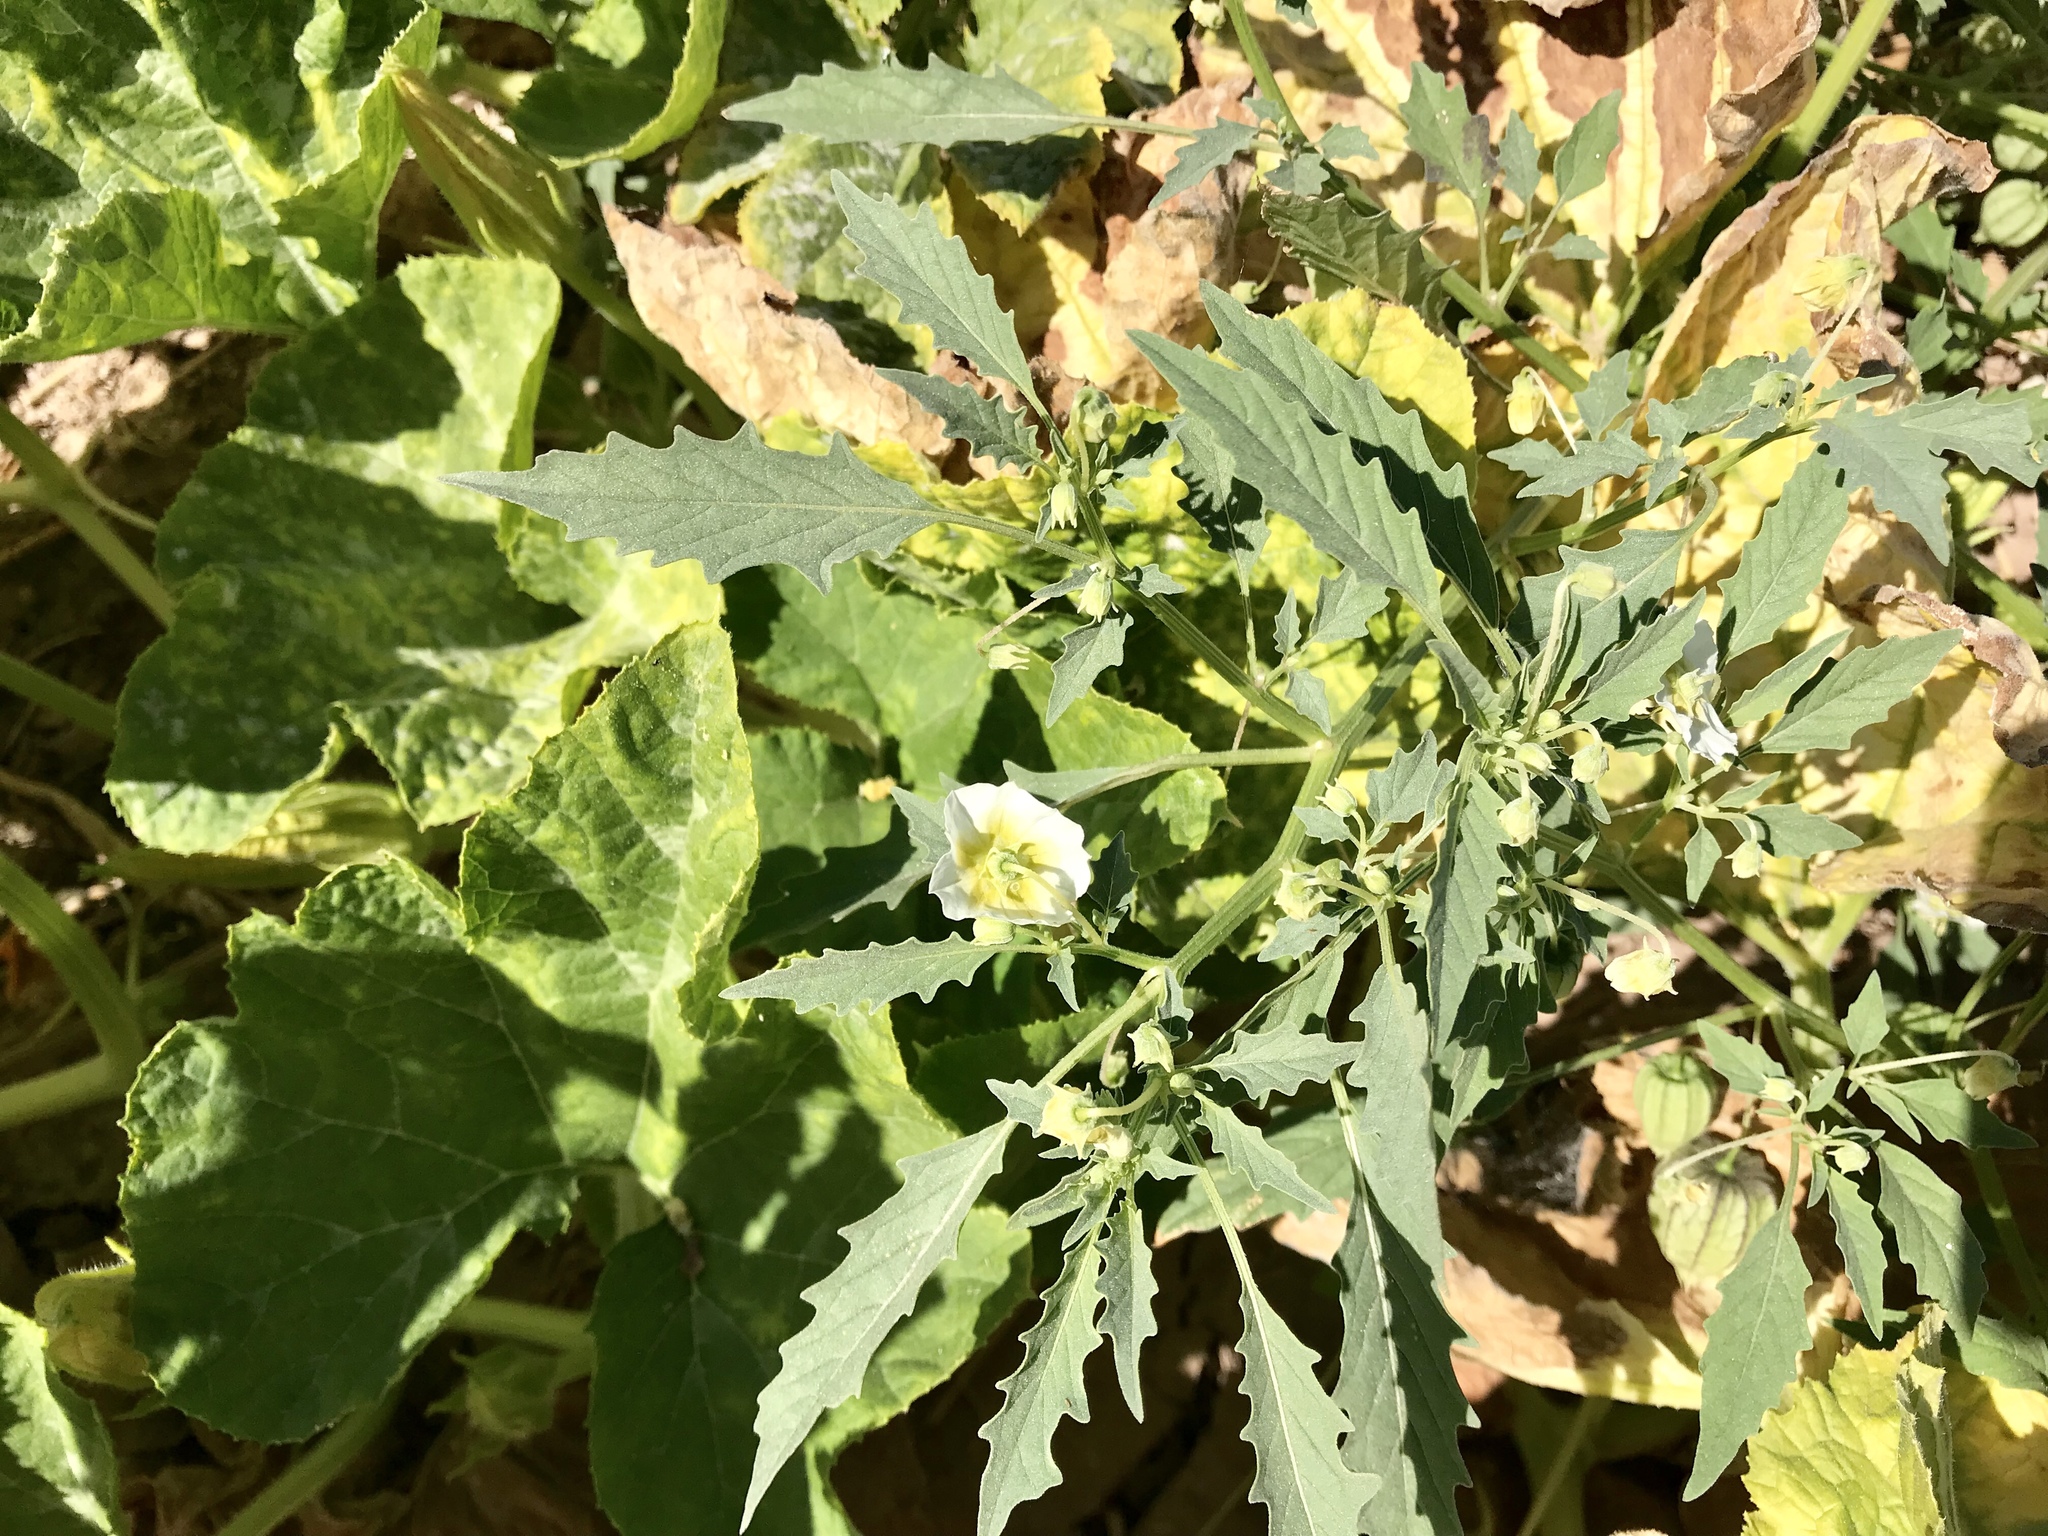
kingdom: Plantae
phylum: Tracheophyta
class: Magnoliopsida
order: Solanales
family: Solanaceae
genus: Physalis
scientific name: Physalis acutifolia
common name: Wright's ground-cherry
